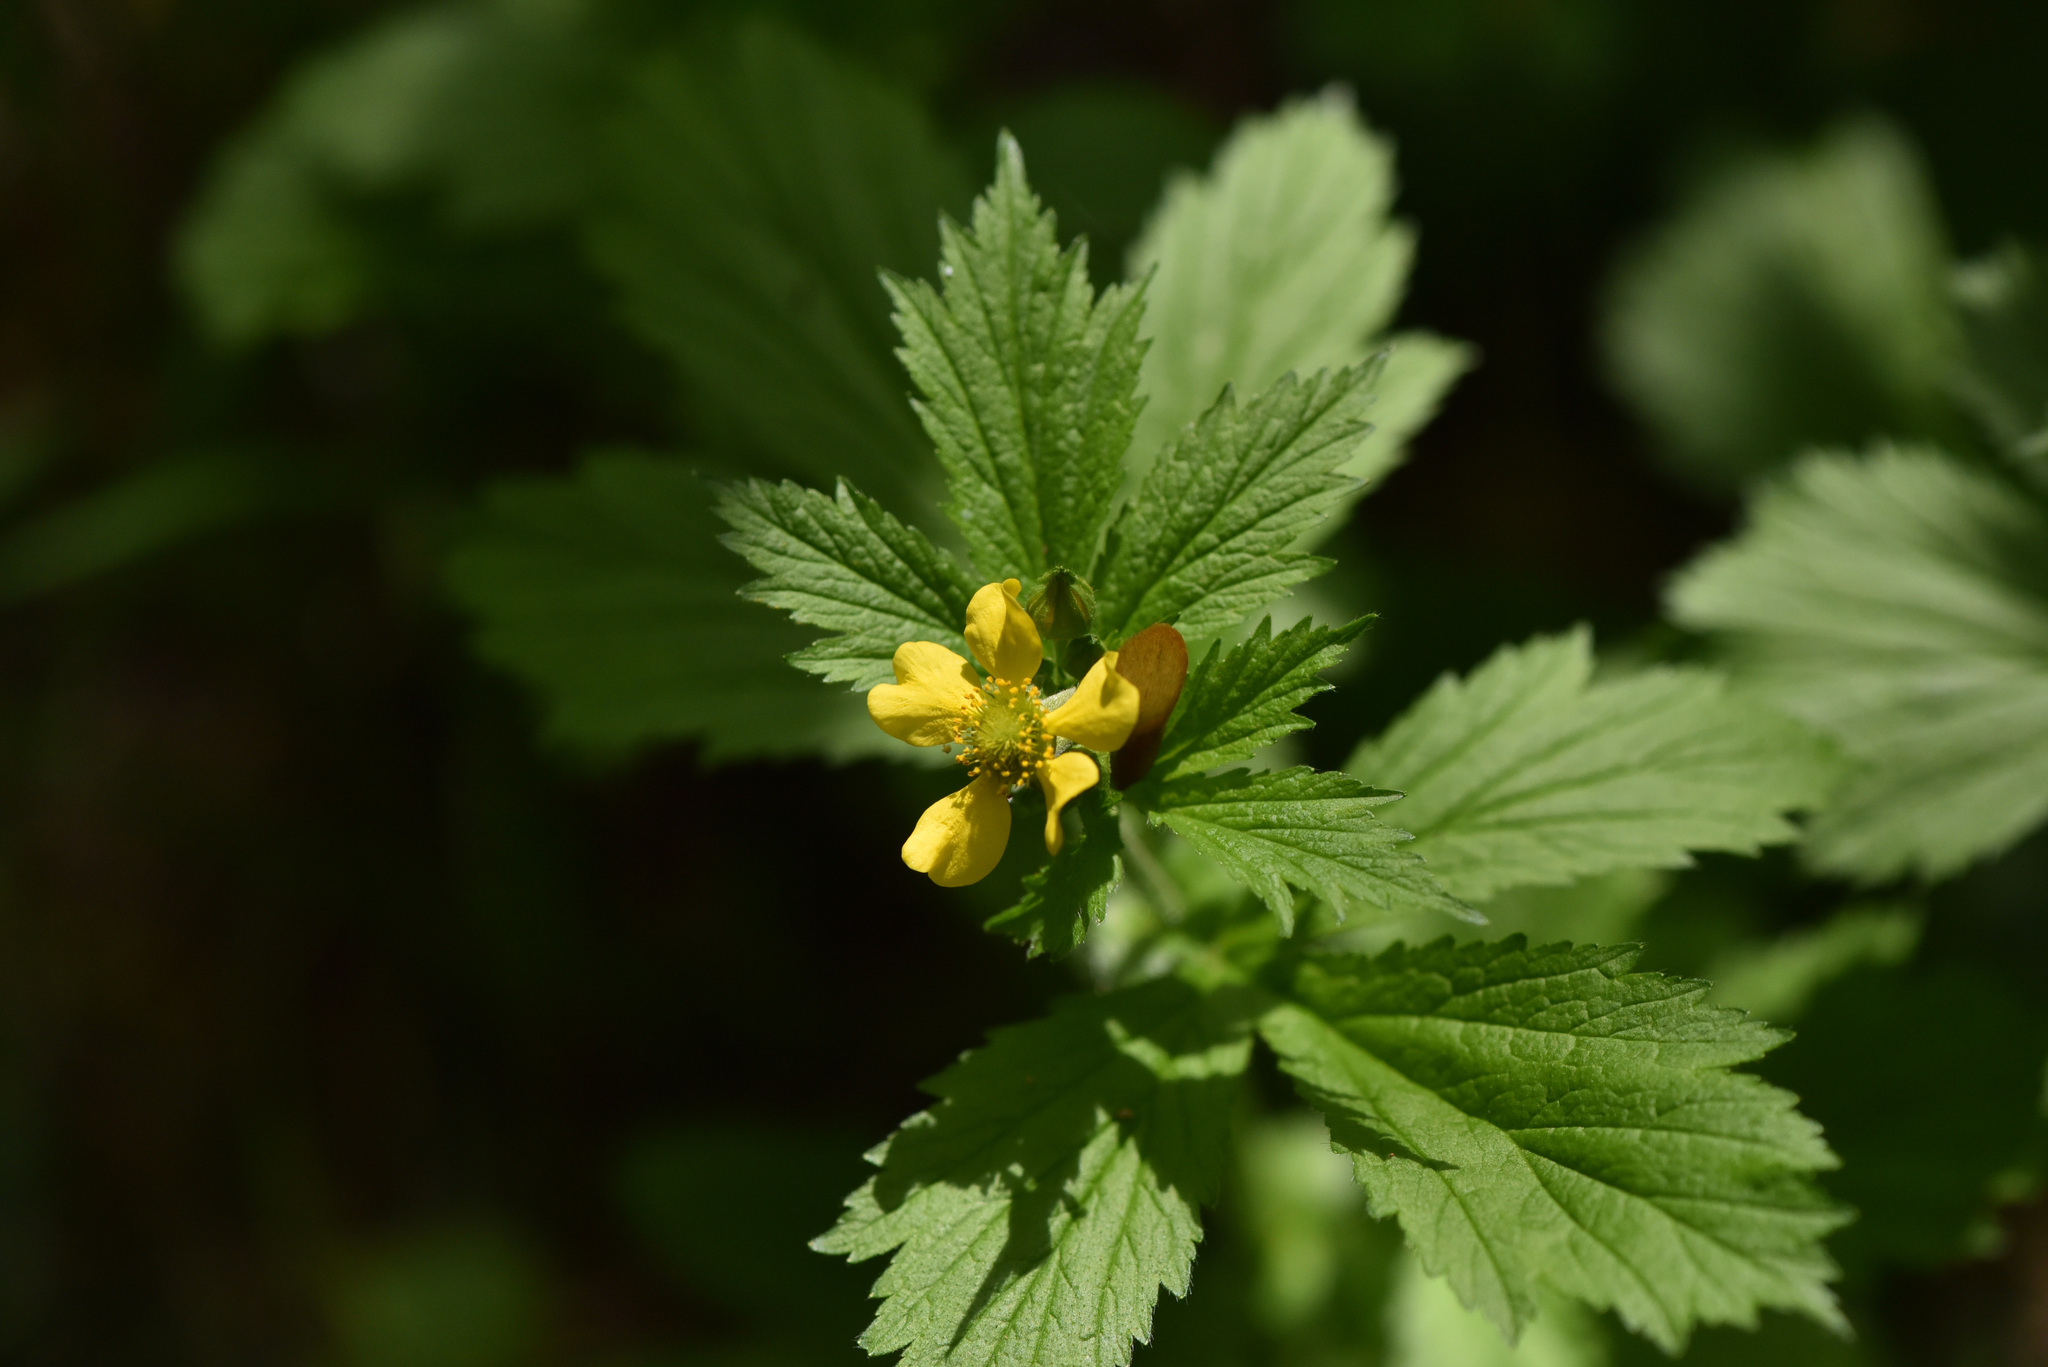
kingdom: Plantae
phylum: Tracheophyta
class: Magnoliopsida
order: Rosales
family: Rosaceae
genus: Geum
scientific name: Geum macrophyllum
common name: Large-leaved avens
